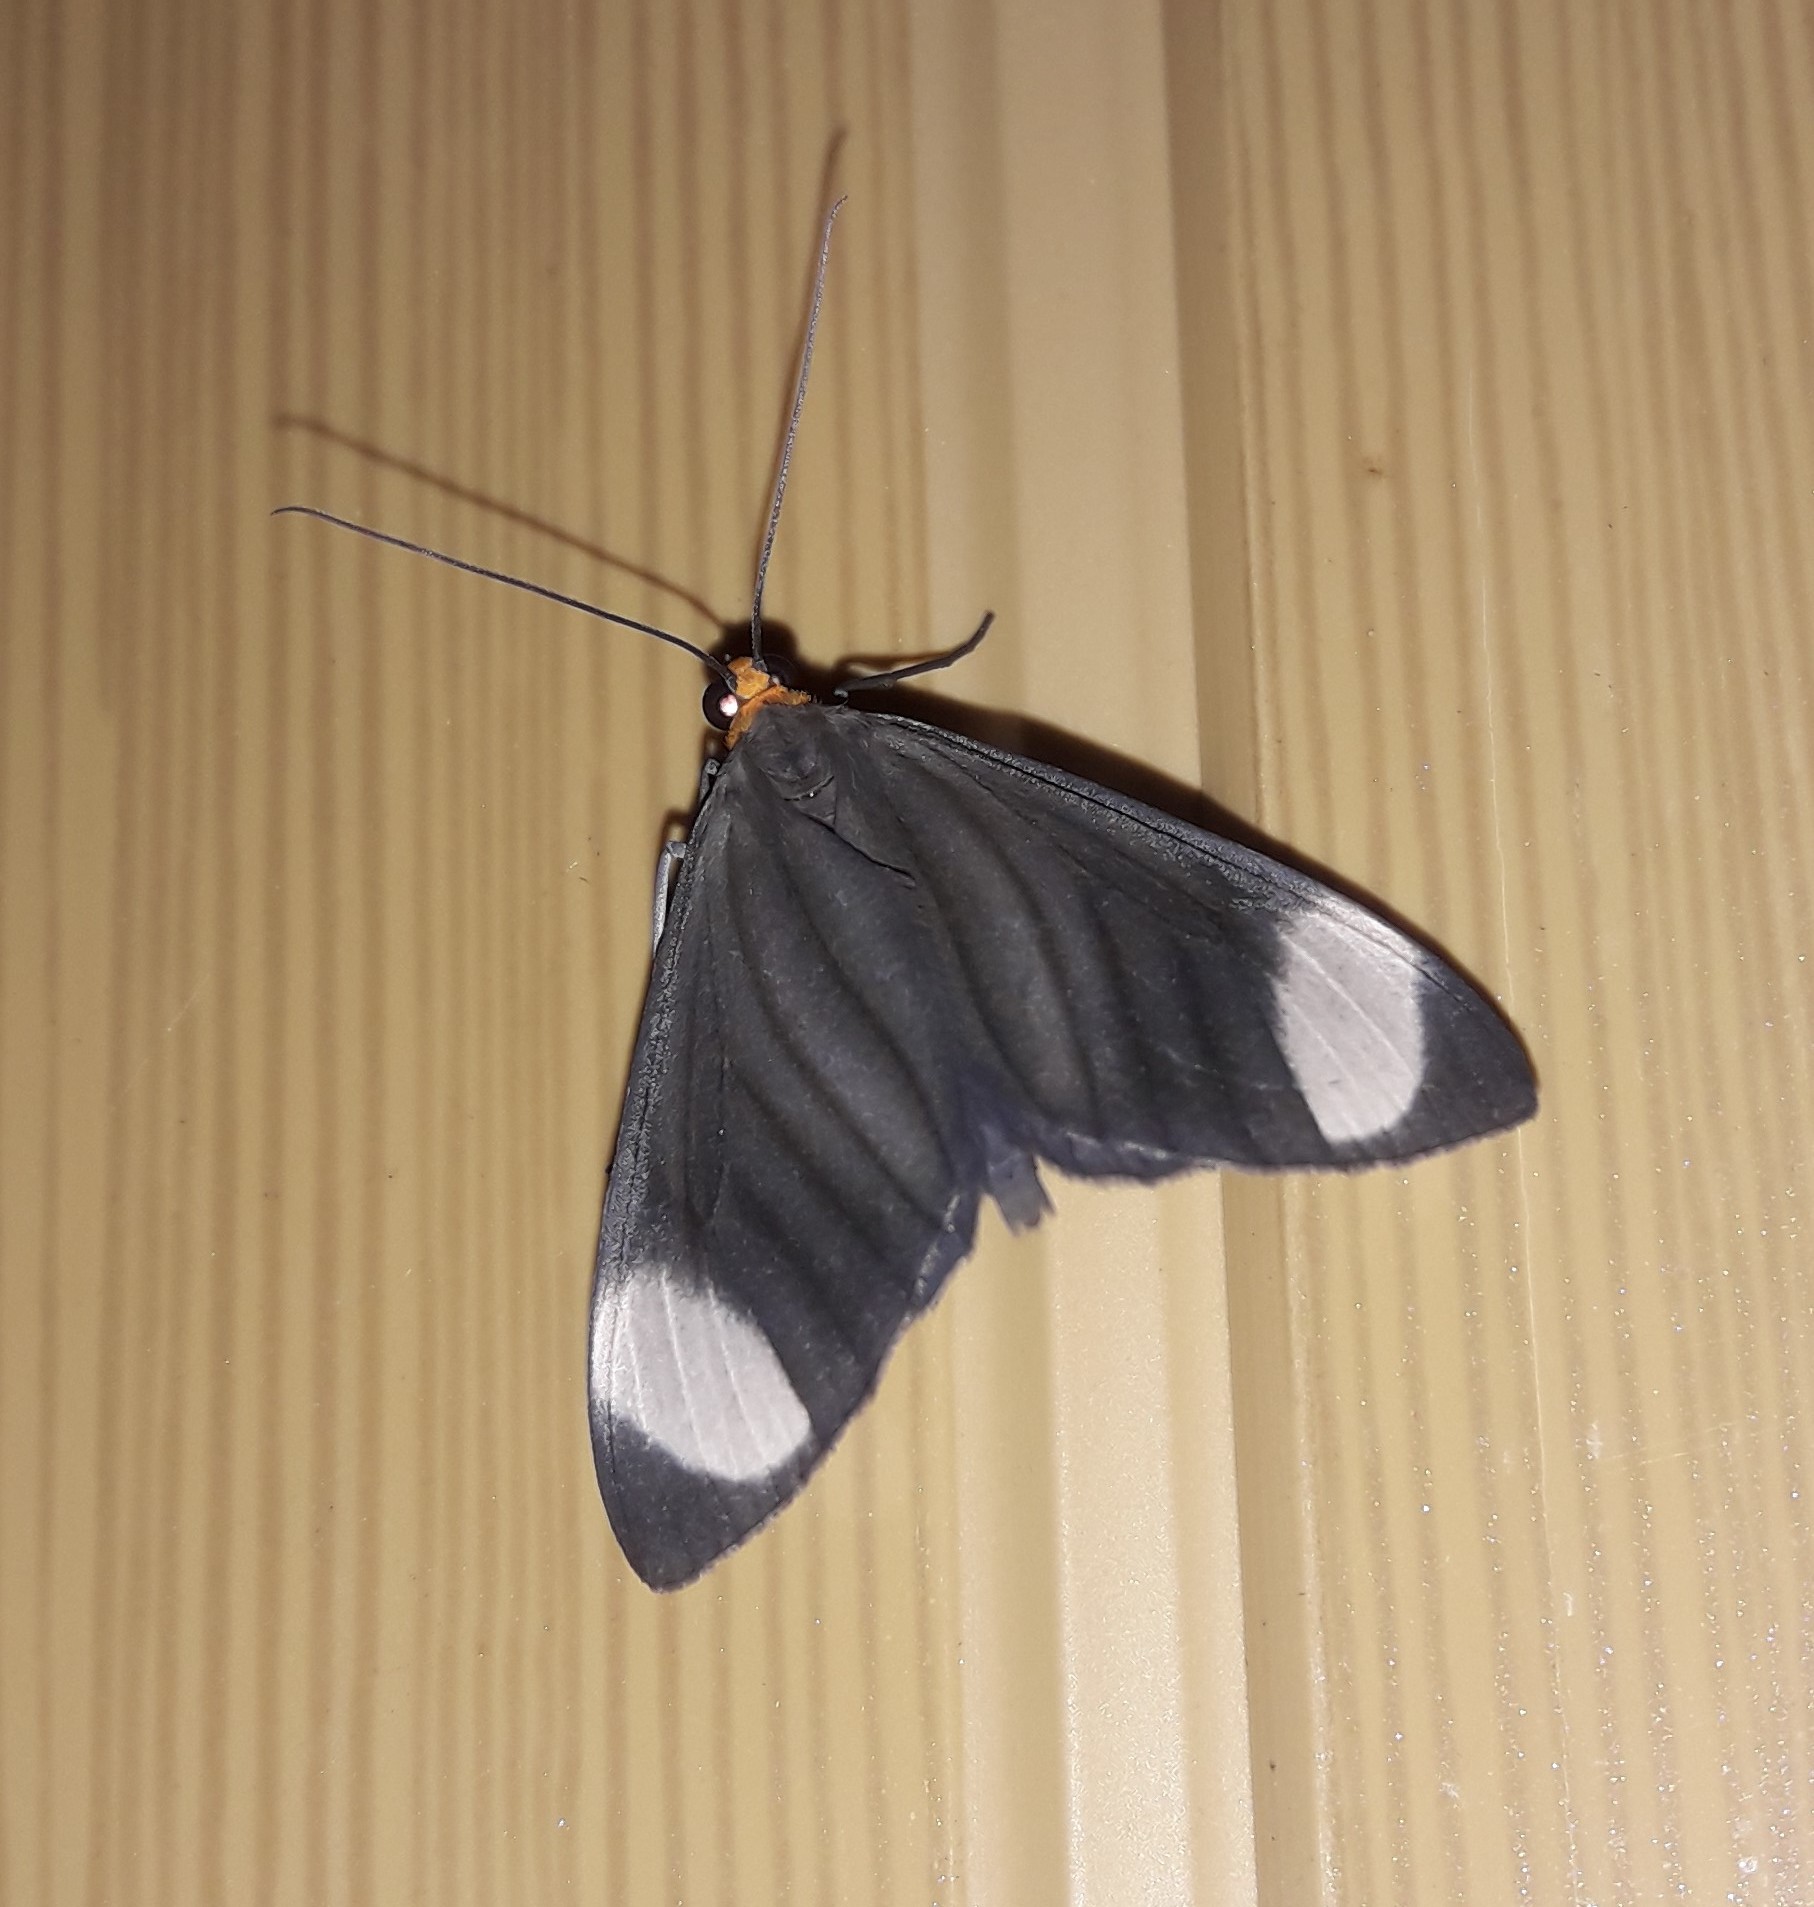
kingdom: Animalia
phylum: Arthropoda
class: Insecta
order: Lepidoptera
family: Geometridae
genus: Crocypus
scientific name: Crocypus perlucidaria
